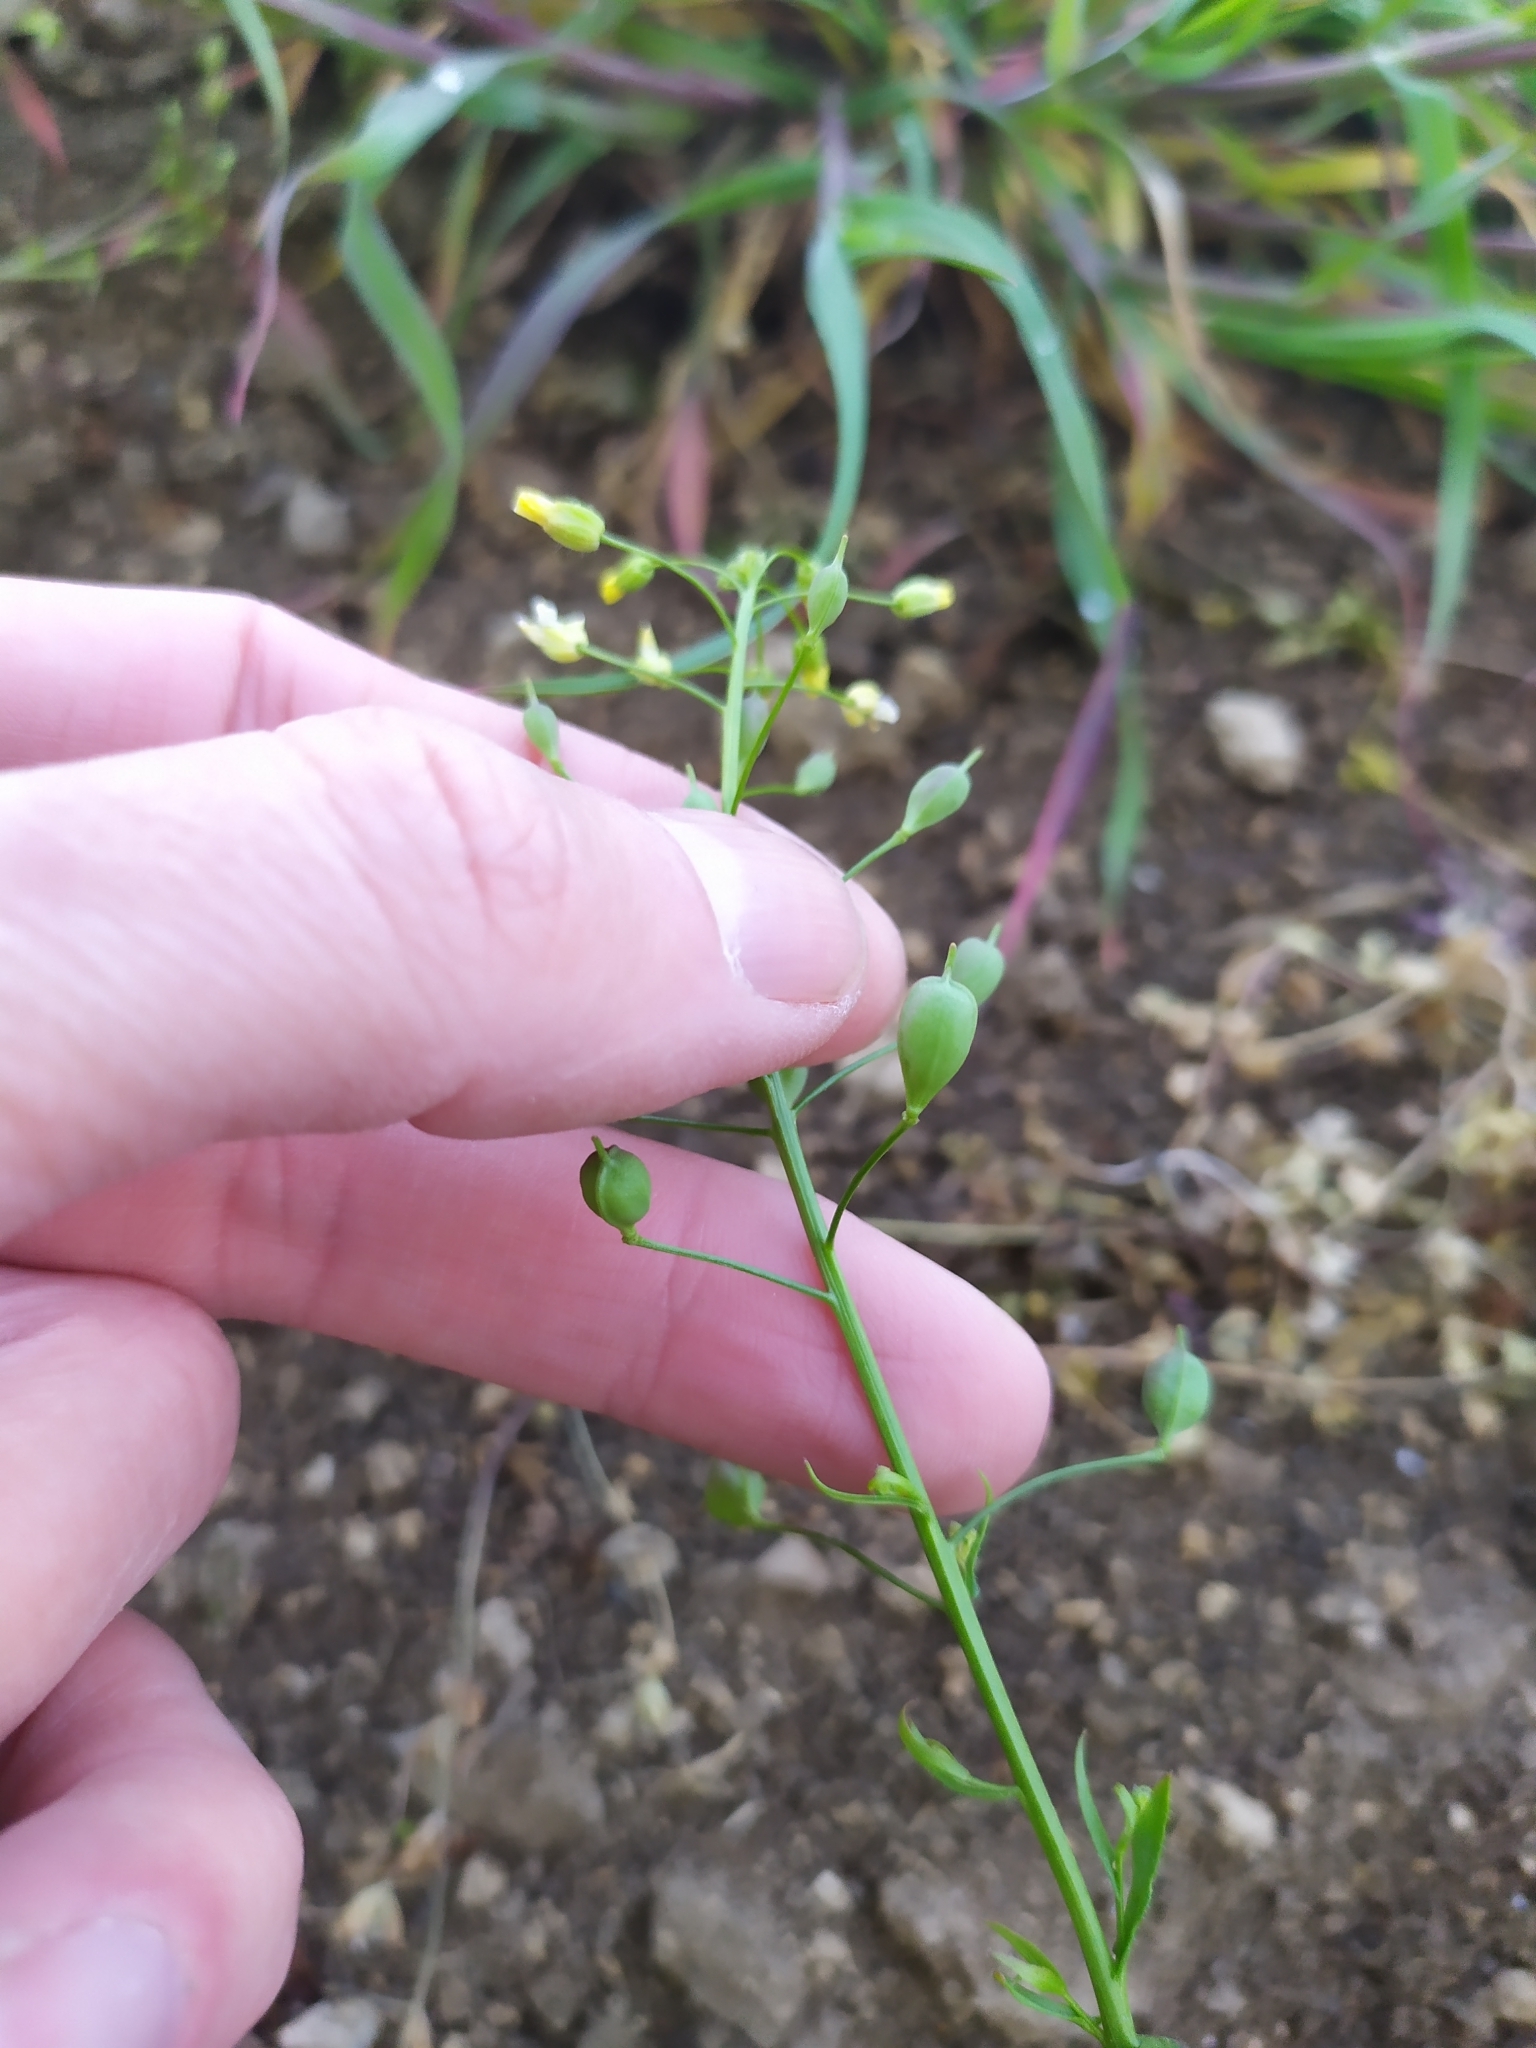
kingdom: Plantae
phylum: Tracheophyta
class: Magnoliopsida
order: Brassicales
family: Brassicaceae
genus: Camelina
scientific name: Camelina sativa
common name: Gold-of-pleasure
